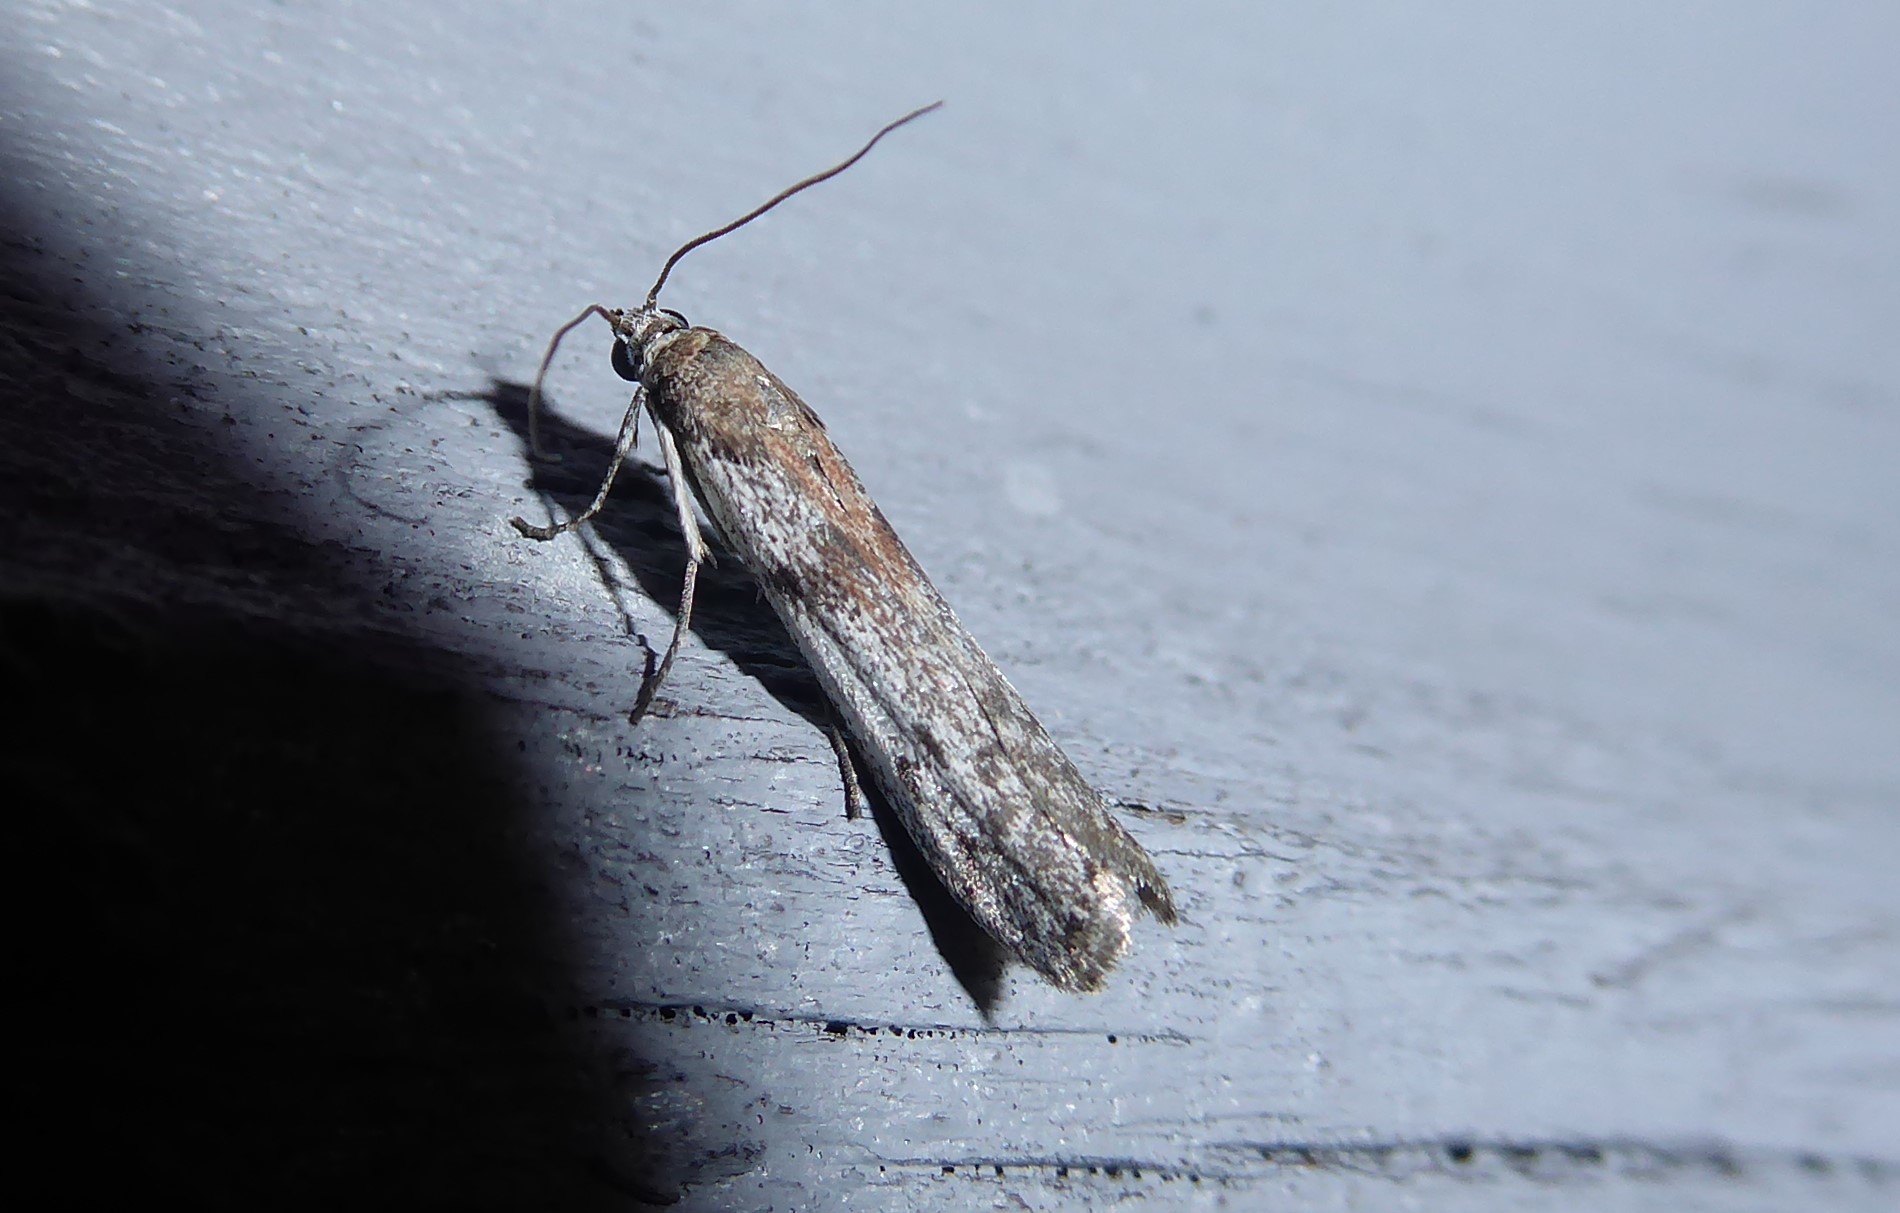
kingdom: Animalia
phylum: Arthropoda
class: Insecta
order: Lepidoptera
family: Pyralidae
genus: Patagoniodes
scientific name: Patagoniodes farinaria
